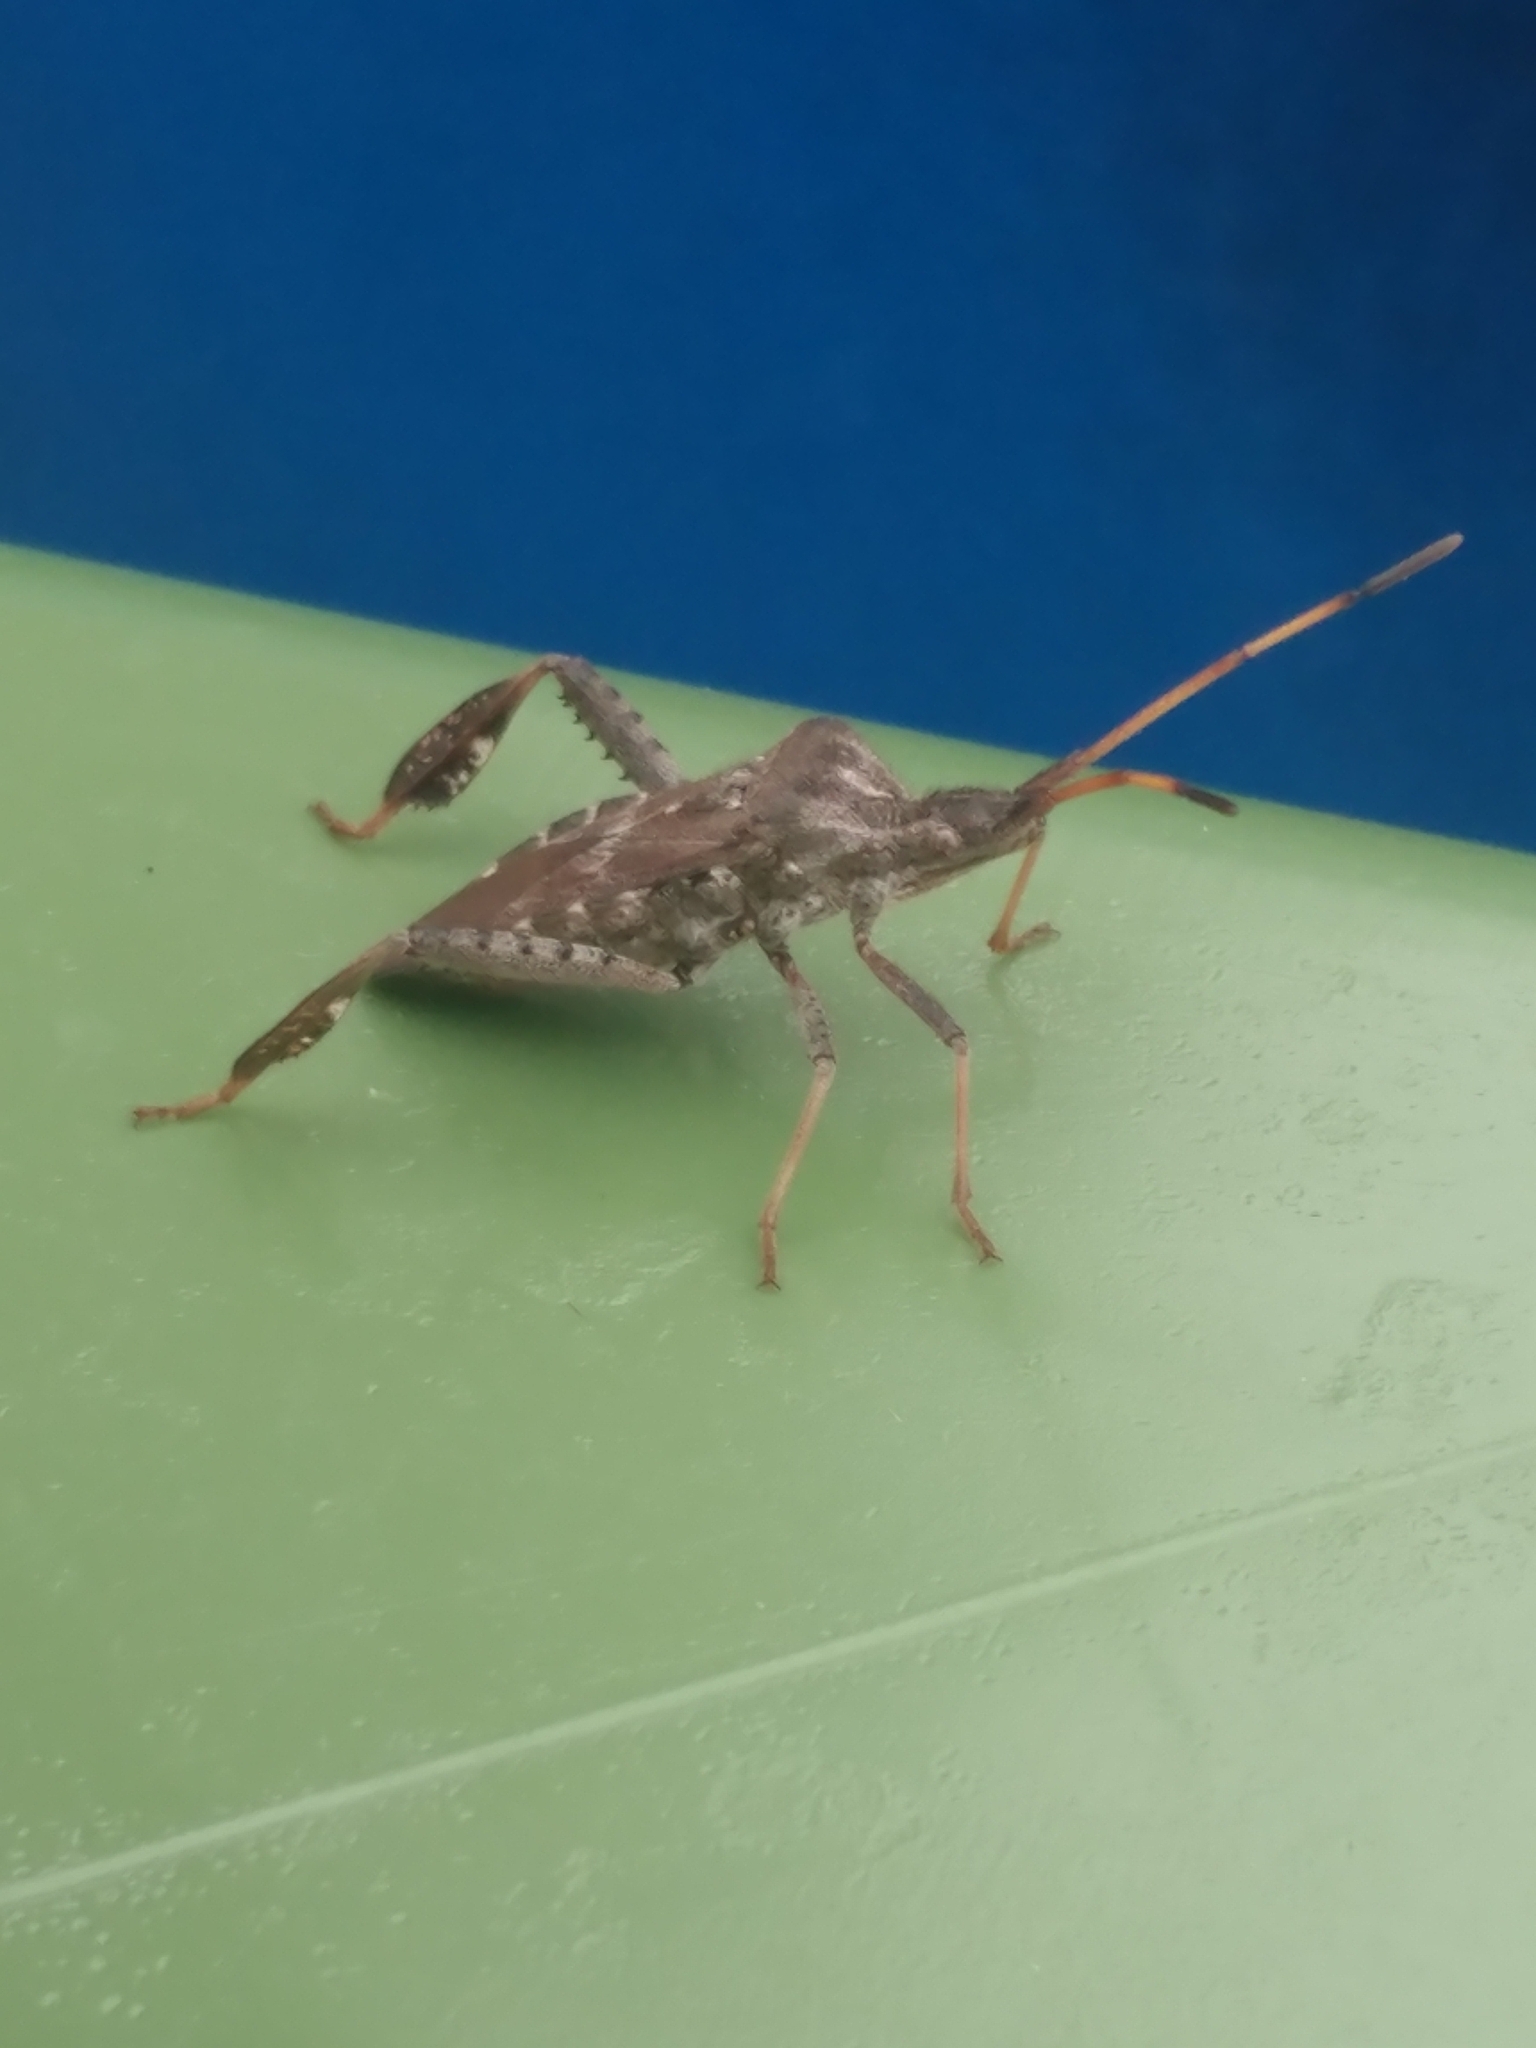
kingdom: Animalia
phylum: Arthropoda
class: Insecta
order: Hemiptera
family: Coreidae
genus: Leptoglossus
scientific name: Leptoglossus corculus
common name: Southern pine seed bug
